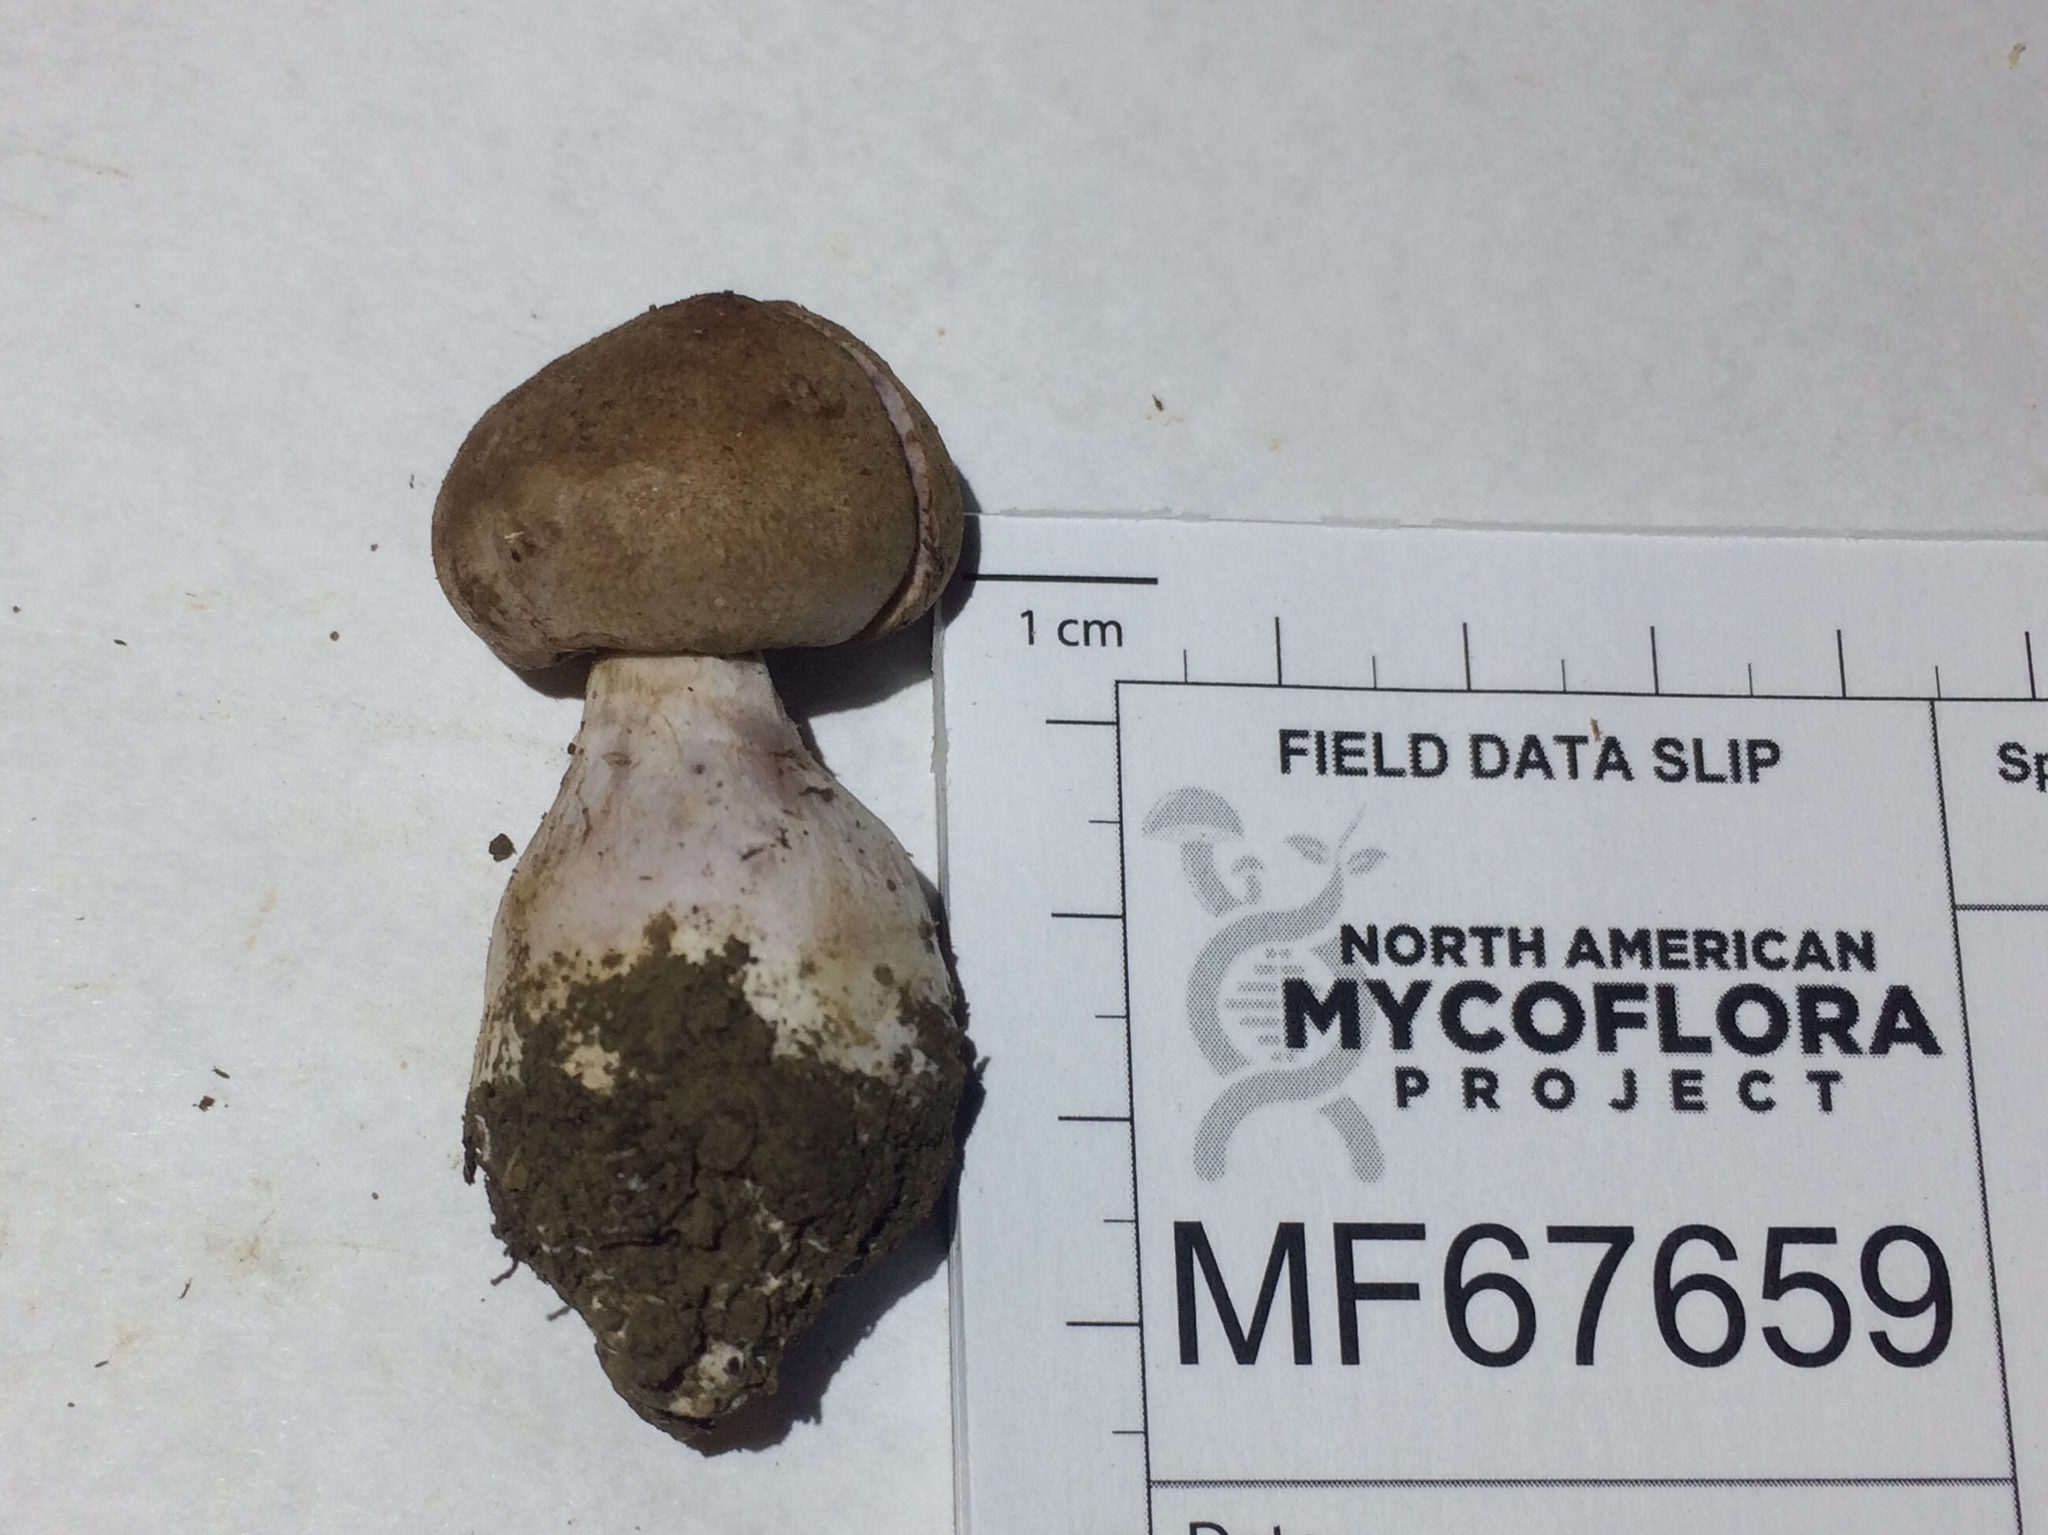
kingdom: Fungi
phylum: Basidiomycota
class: Agaricomycetes
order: Agaricales
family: Cortinariaceae
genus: Phlegmacium
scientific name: Phlegmacium coalescens
